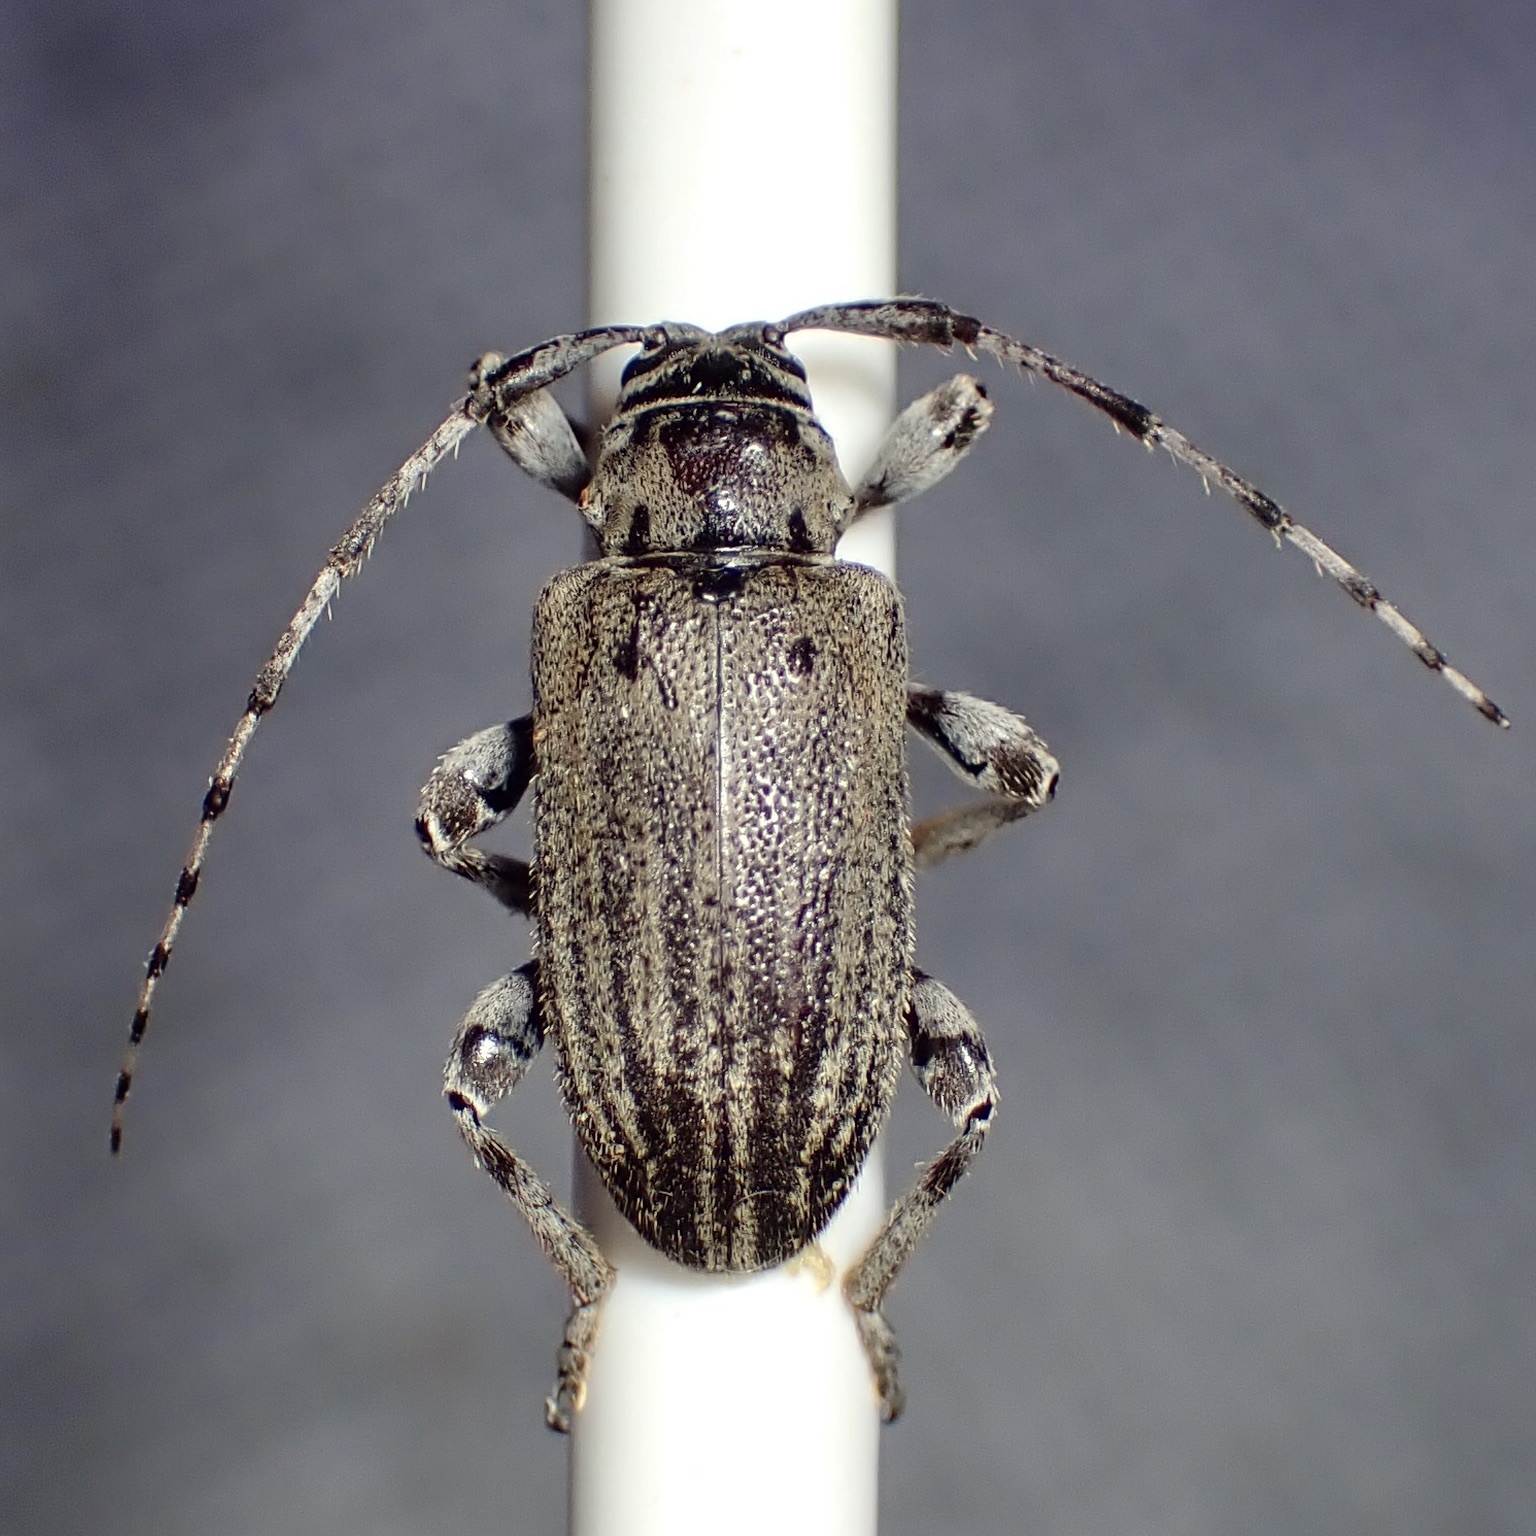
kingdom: Animalia
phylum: Arthropoda
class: Insecta
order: Coleoptera
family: Cerambycidae
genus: Glaucotes
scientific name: Glaucotes yuccivorus
